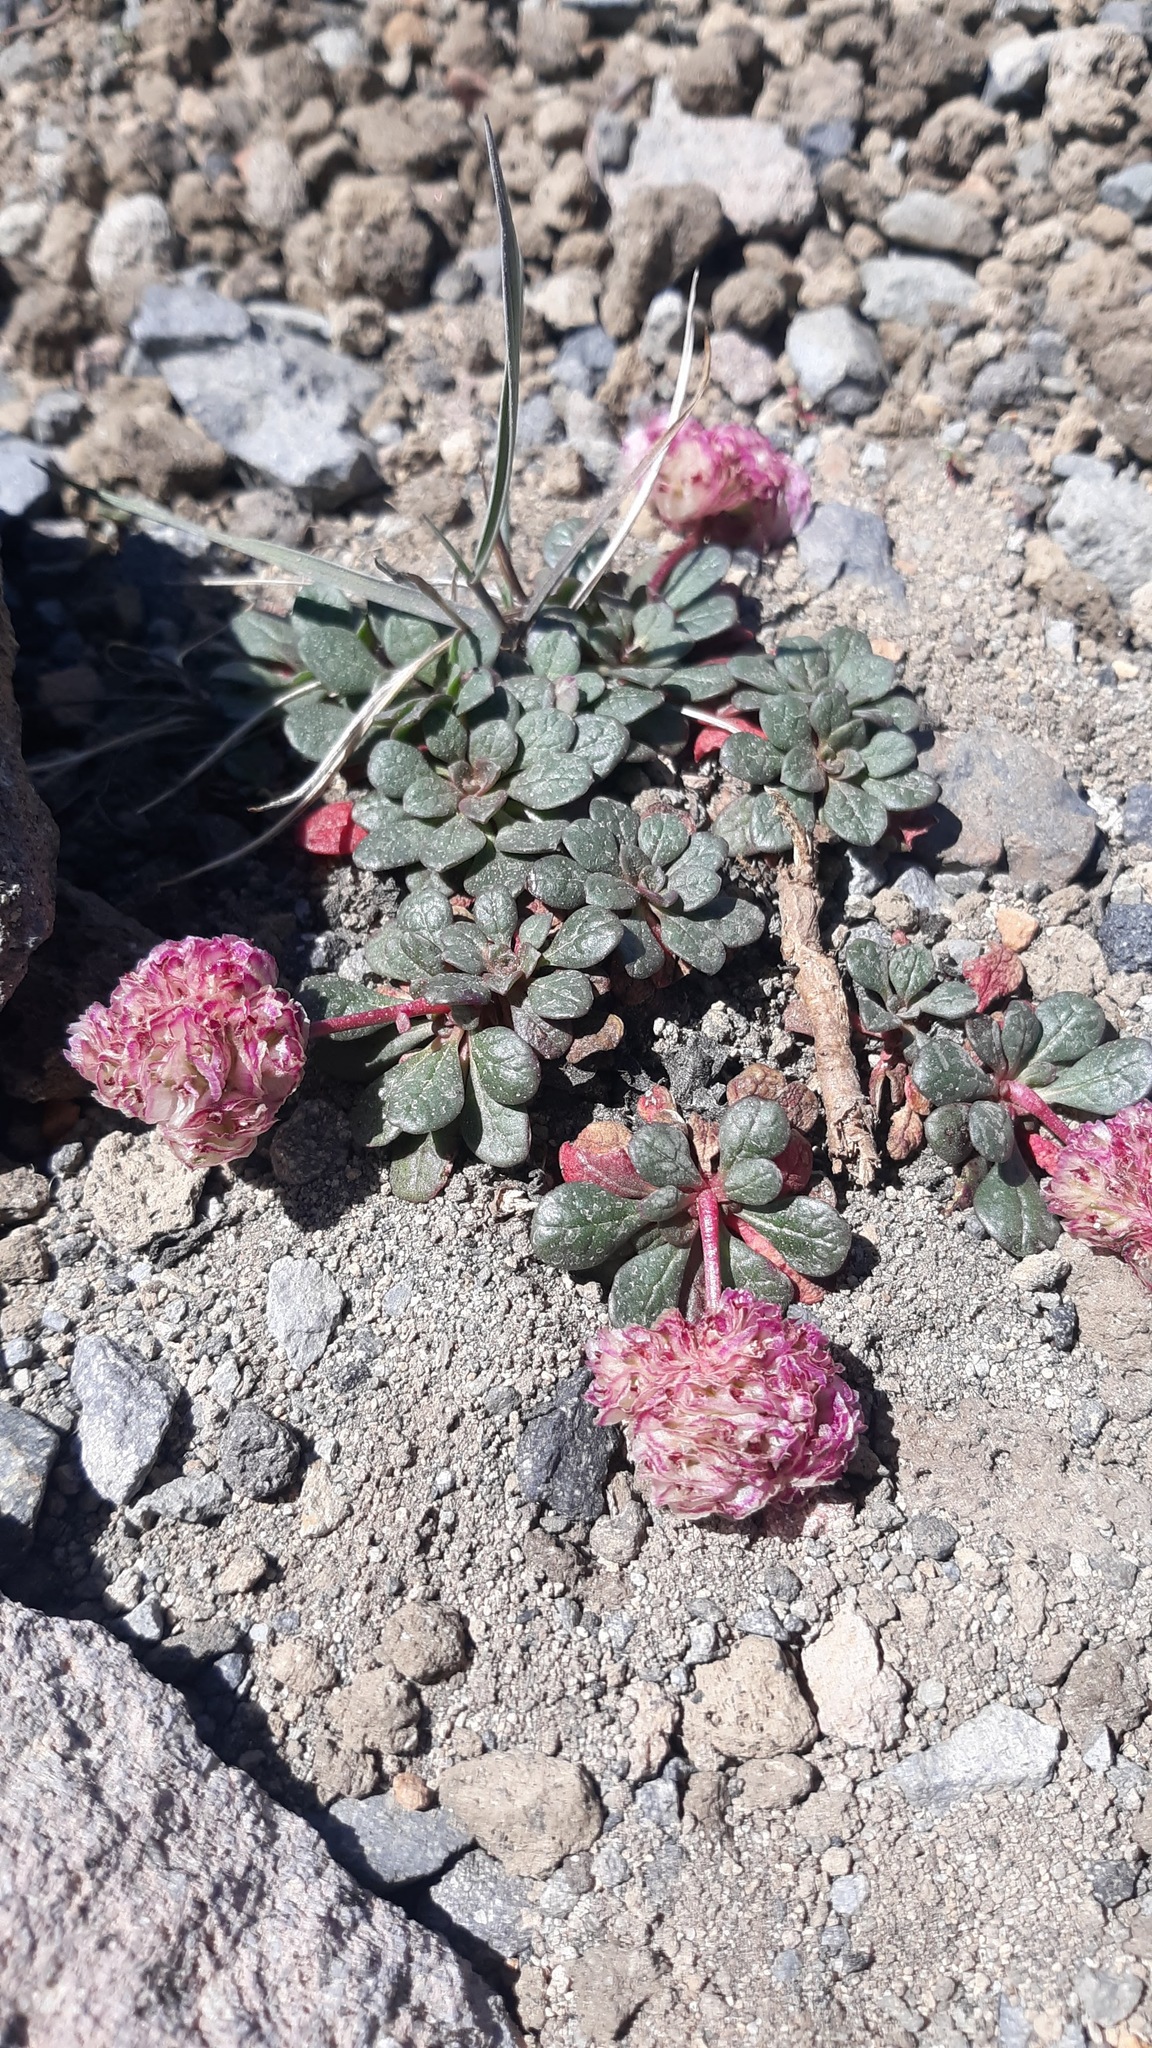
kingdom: Plantae
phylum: Tracheophyta
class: Magnoliopsida
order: Caryophyllales
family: Montiaceae
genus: Calyptridium
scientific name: Calyptridium umbellatum
